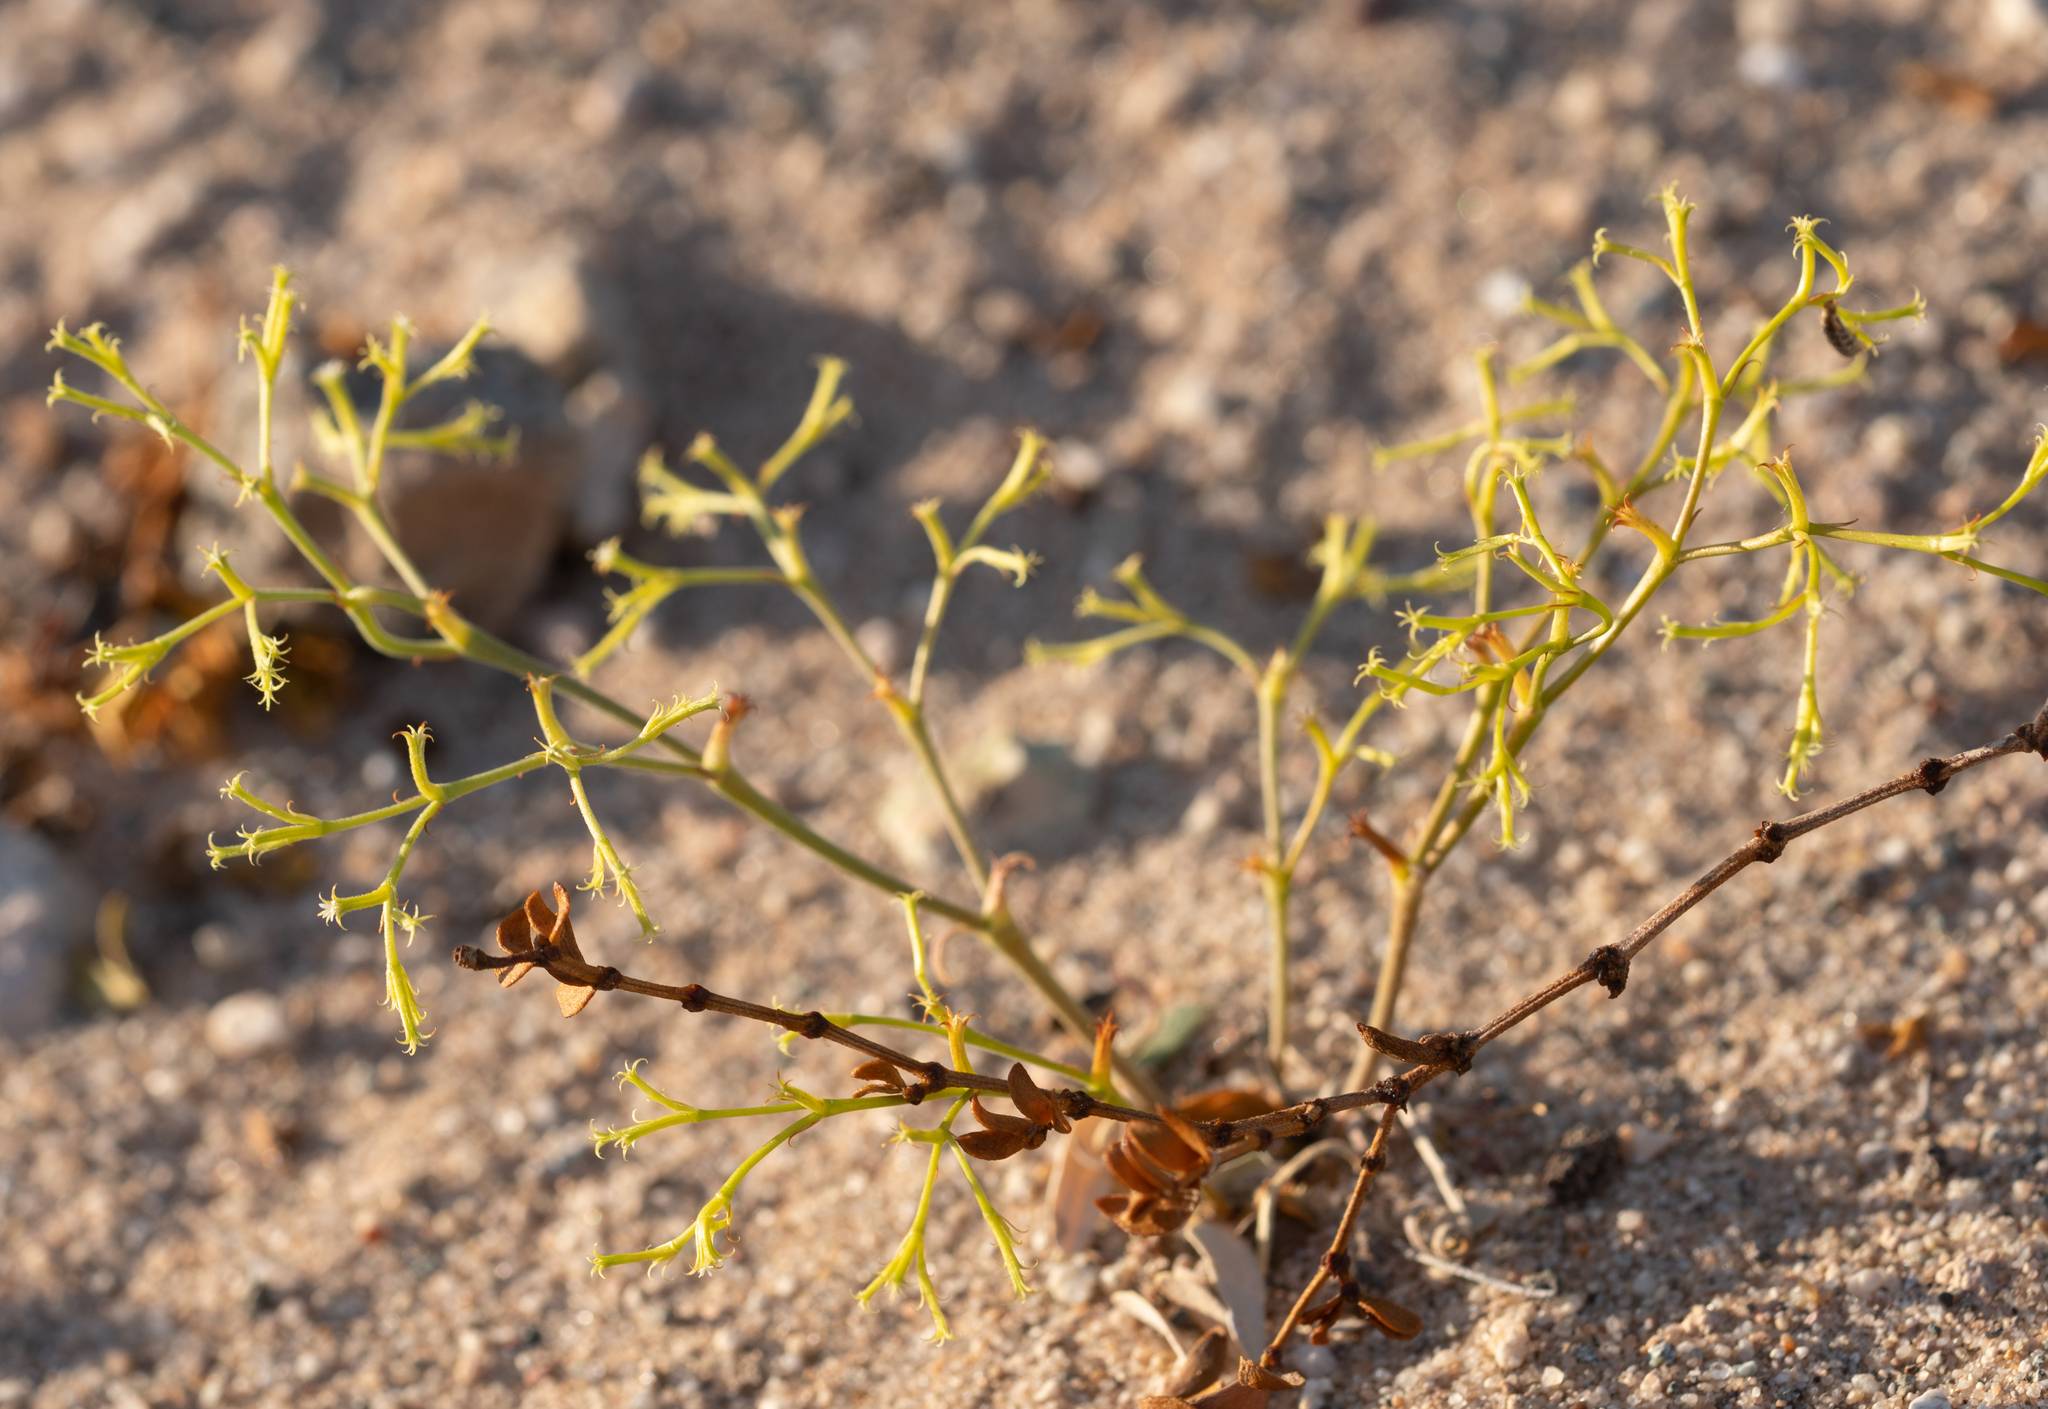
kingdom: Plantae
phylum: Tracheophyta
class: Magnoliopsida
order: Caryophyllales
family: Polygonaceae
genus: Chorizanthe
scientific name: Chorizanthe brevicornu
